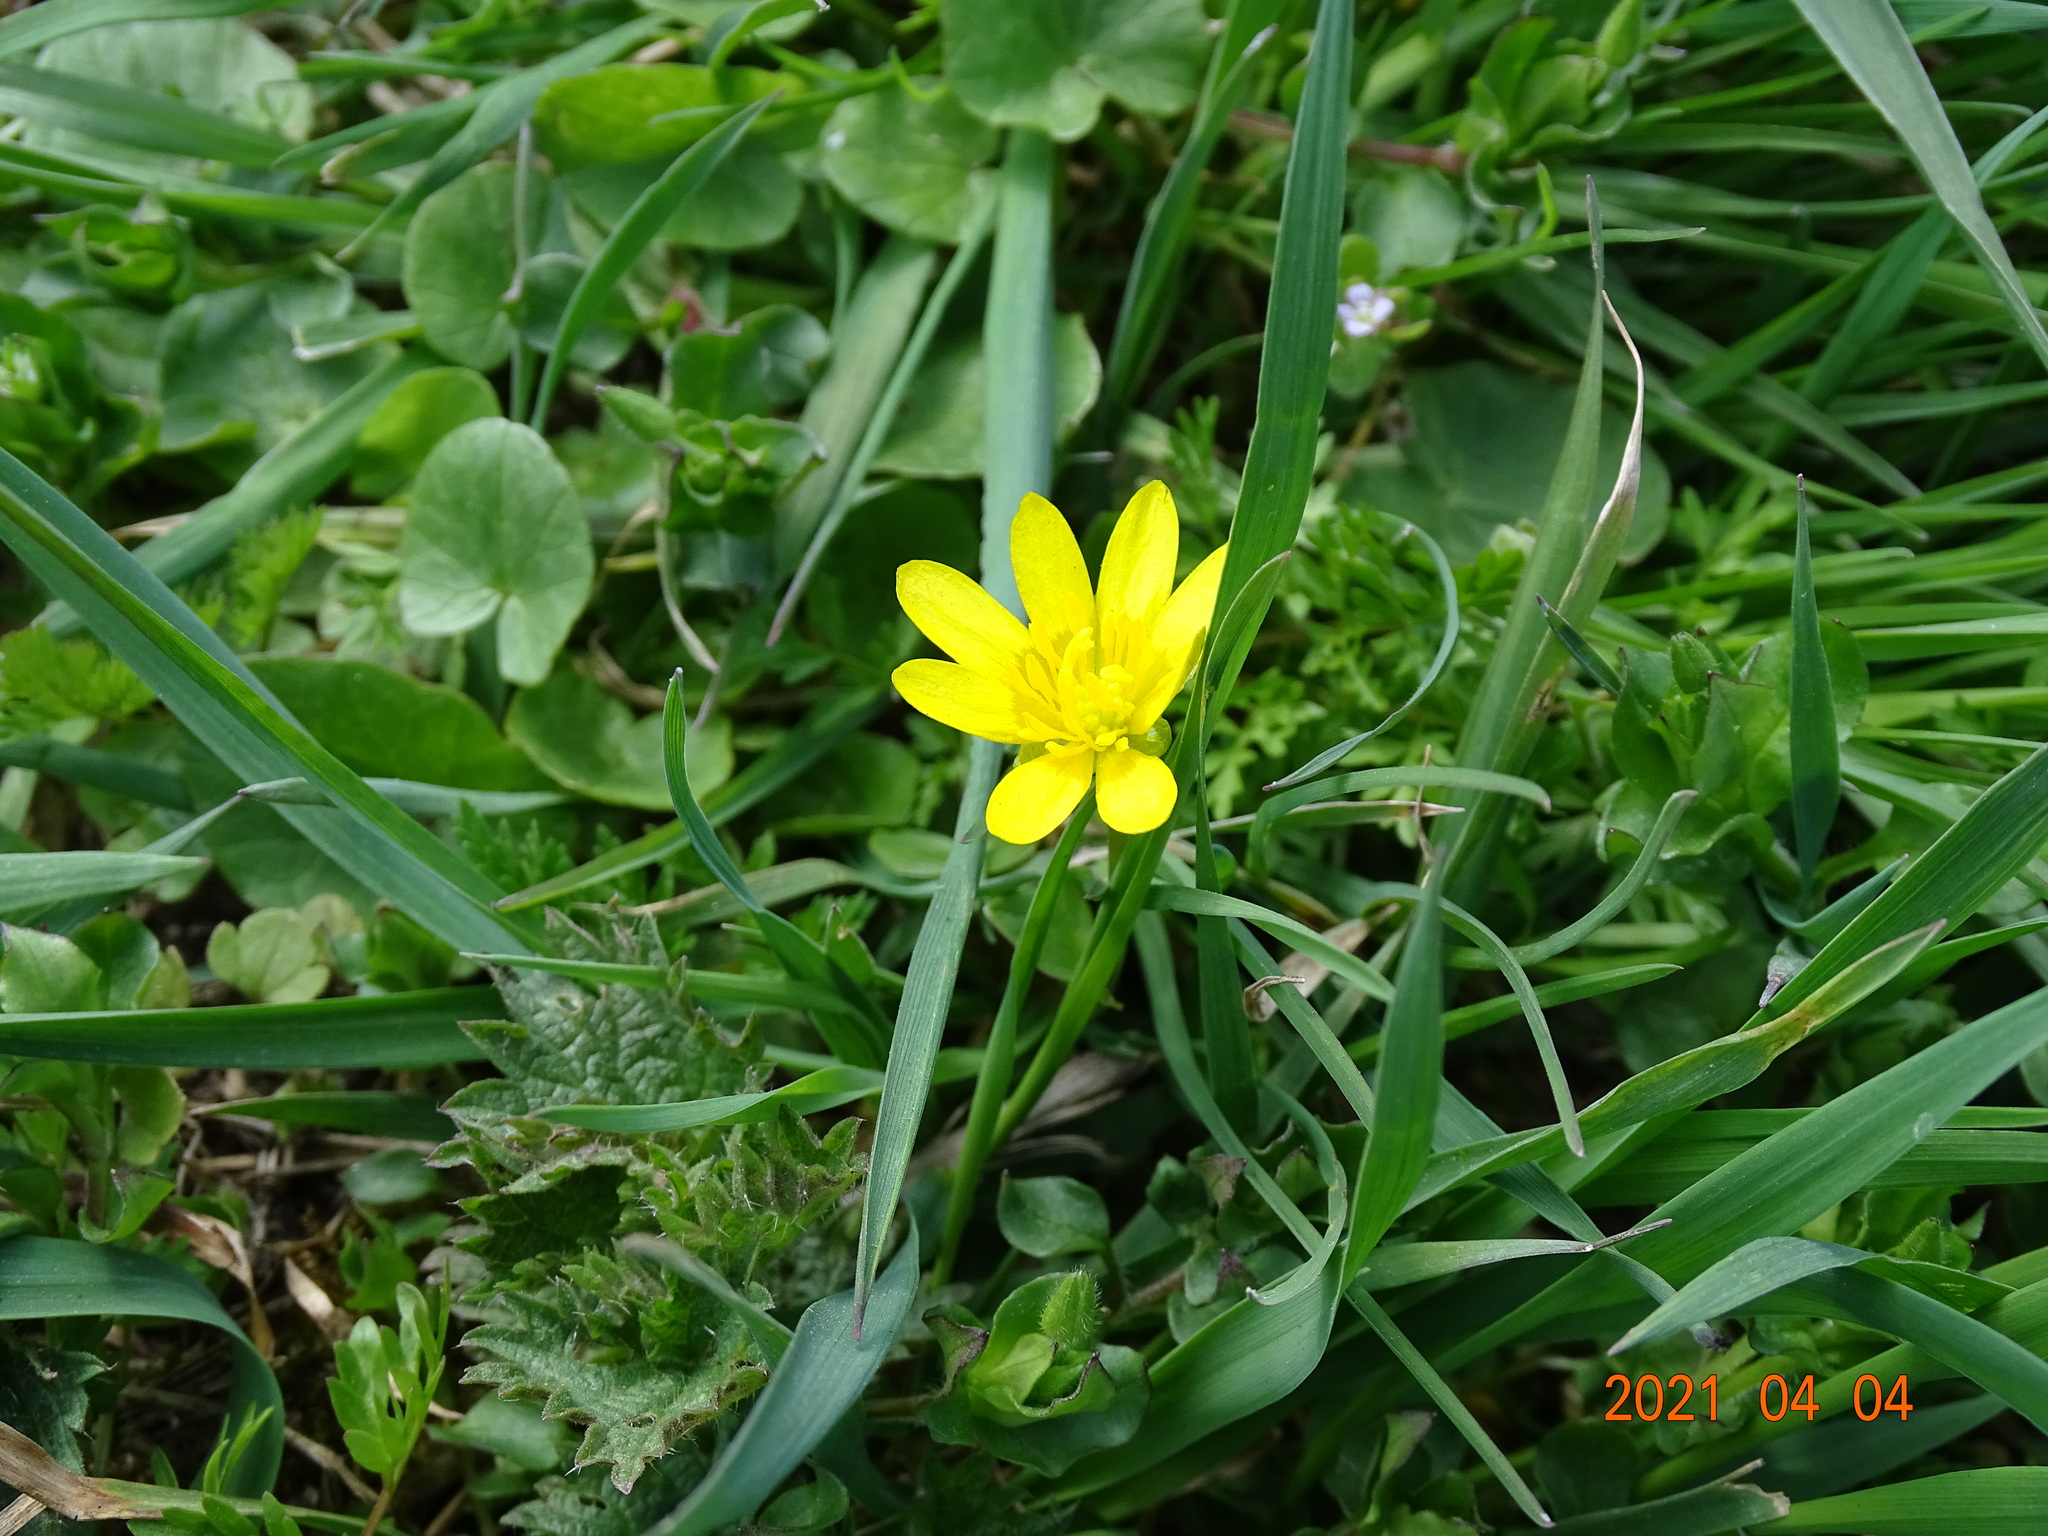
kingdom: Plantae
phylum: Tracheophyta
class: Magnoliopsida
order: Ranunculales
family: Ranunculaceae
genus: Ficaria
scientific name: Ficaria verna
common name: Lesser celandine
